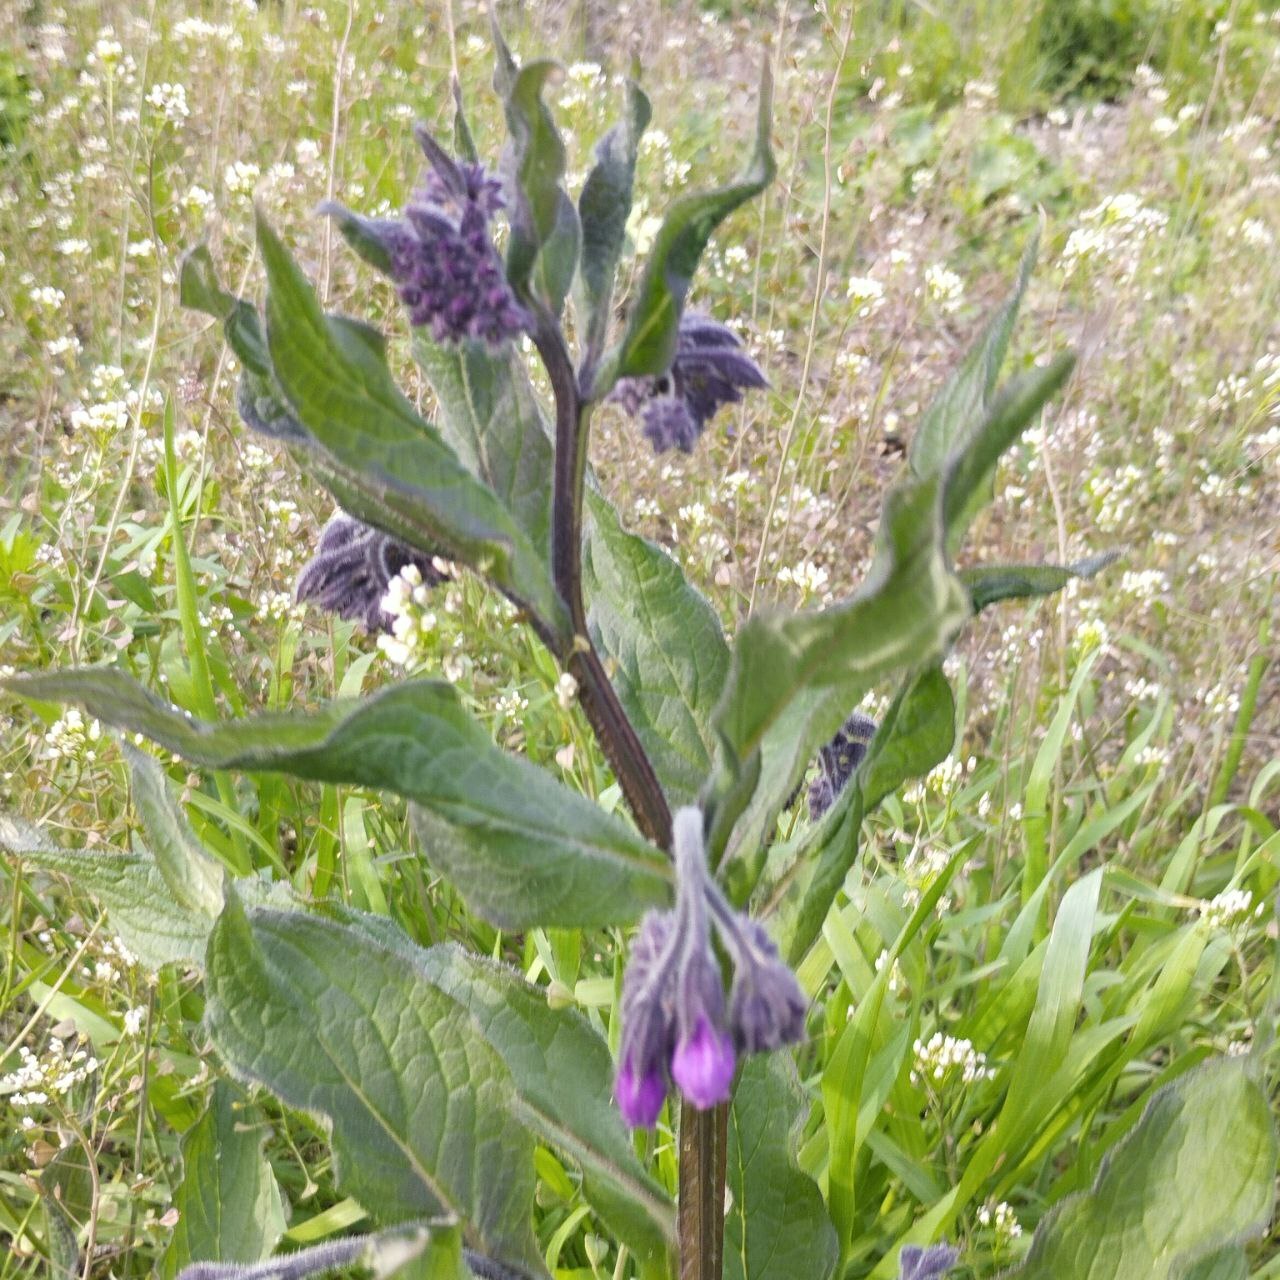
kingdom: Plantae
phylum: Tracheophyta
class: Magnoliopsida
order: Boraginales
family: Boraginaceae
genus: Symphytum
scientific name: Symphytum officinale
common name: Common comfrey
